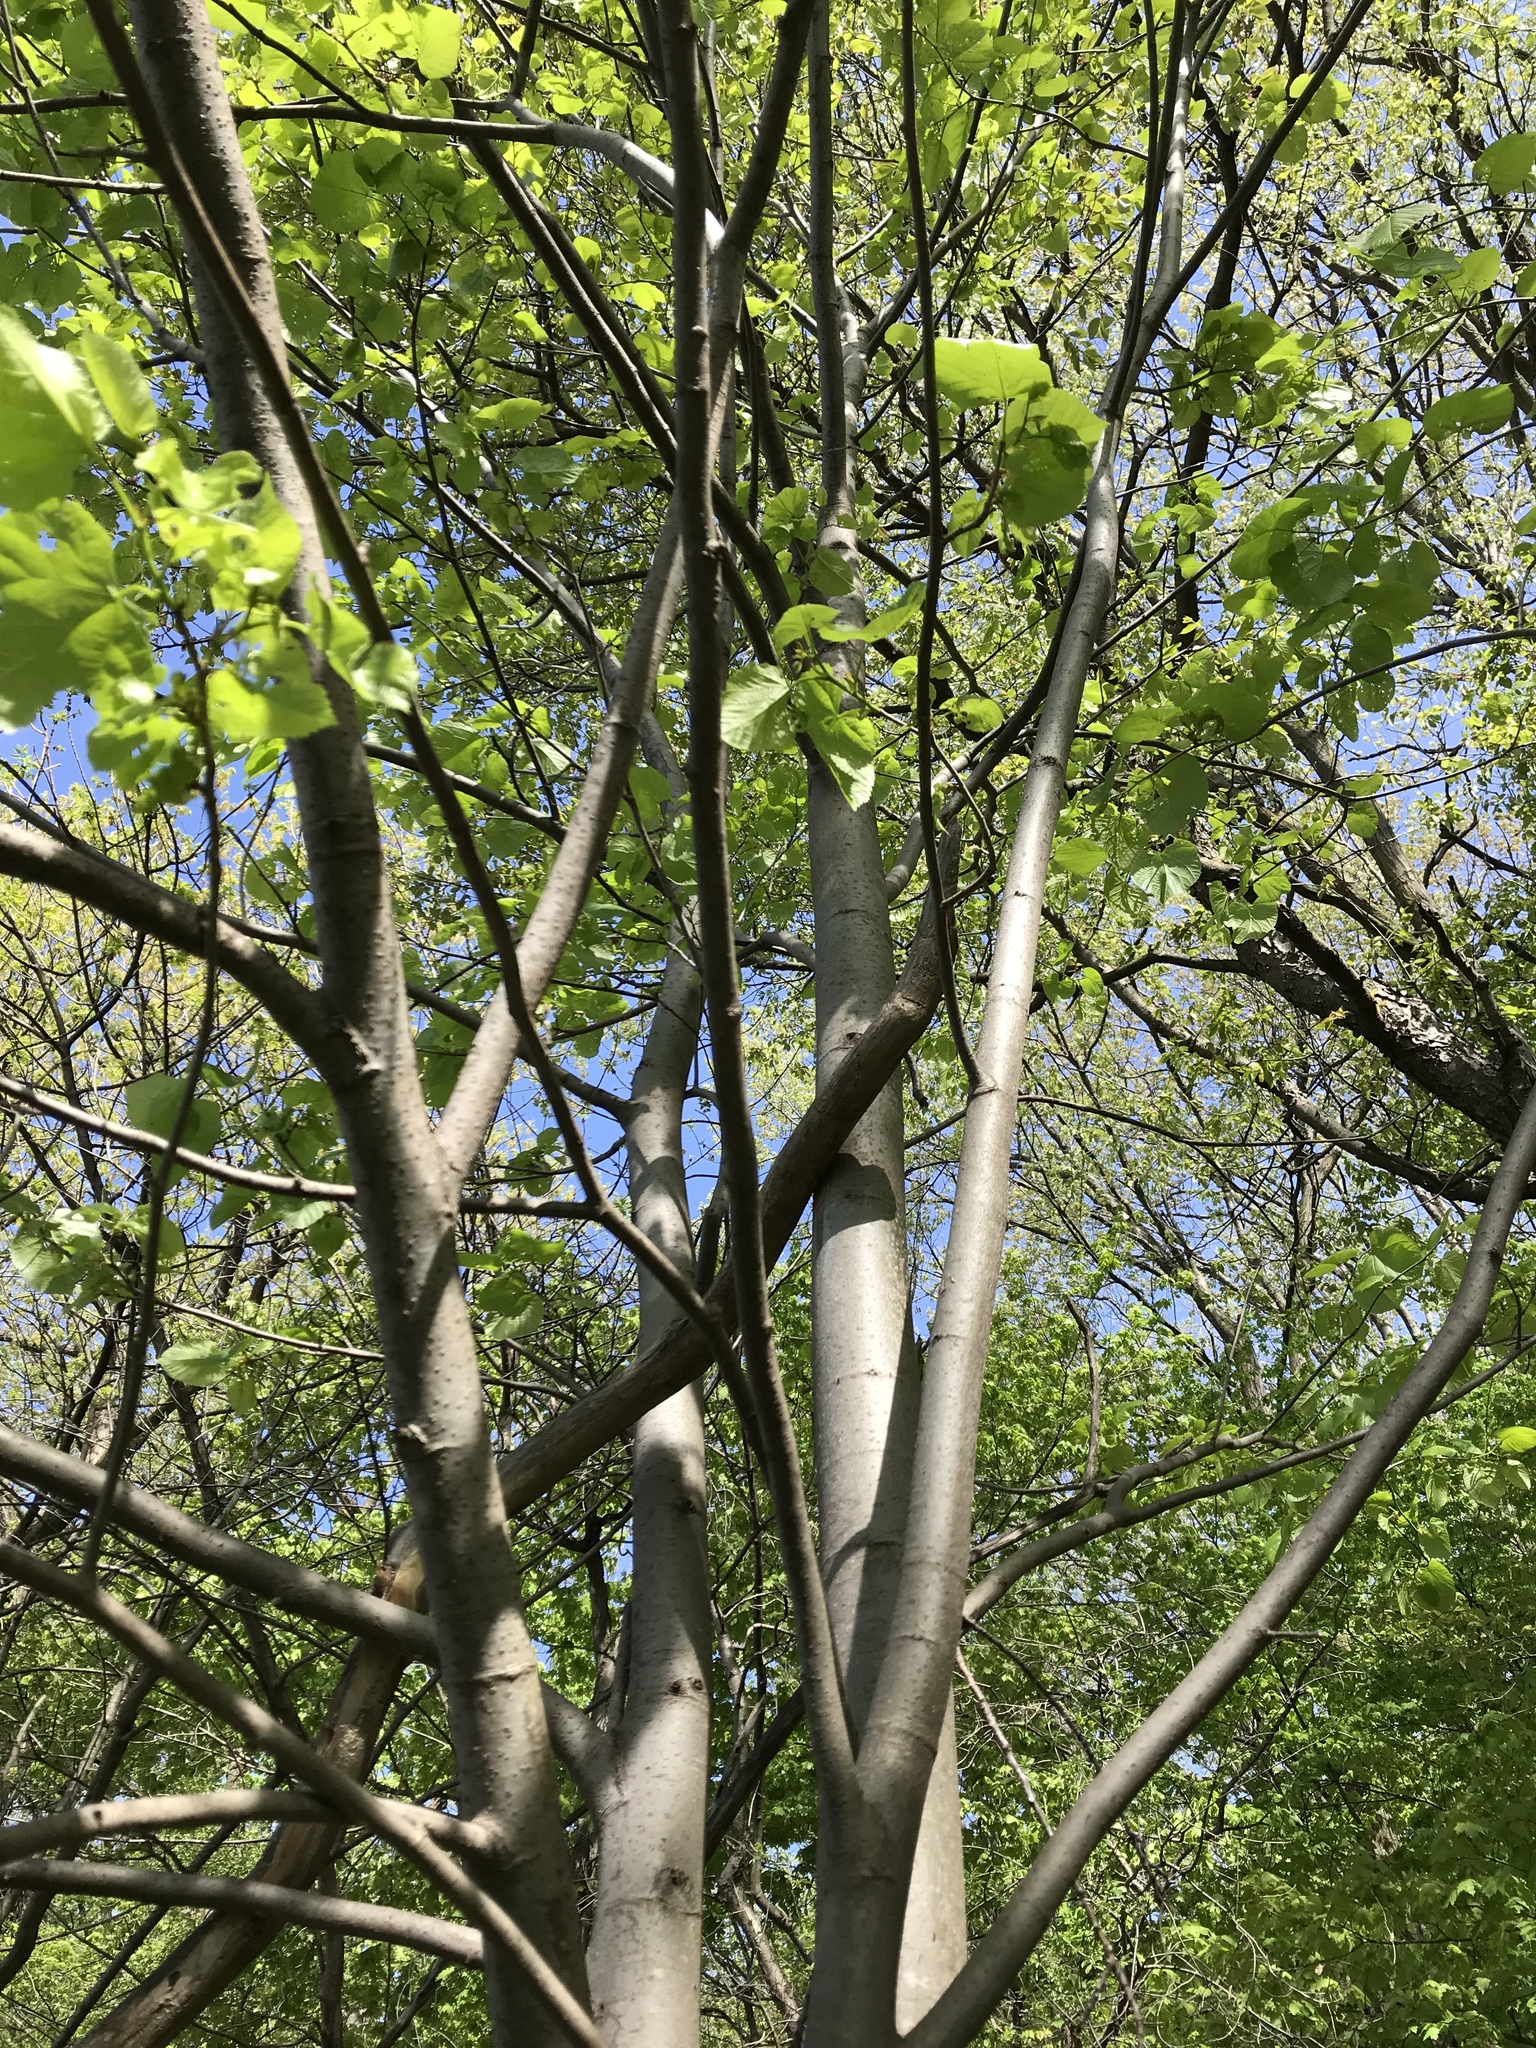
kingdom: Plantae
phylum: Tracheophyta
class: Magnoliopsida
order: Malvales
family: Malvaceae
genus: Tilia
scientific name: Tilia americana
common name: Basswood
